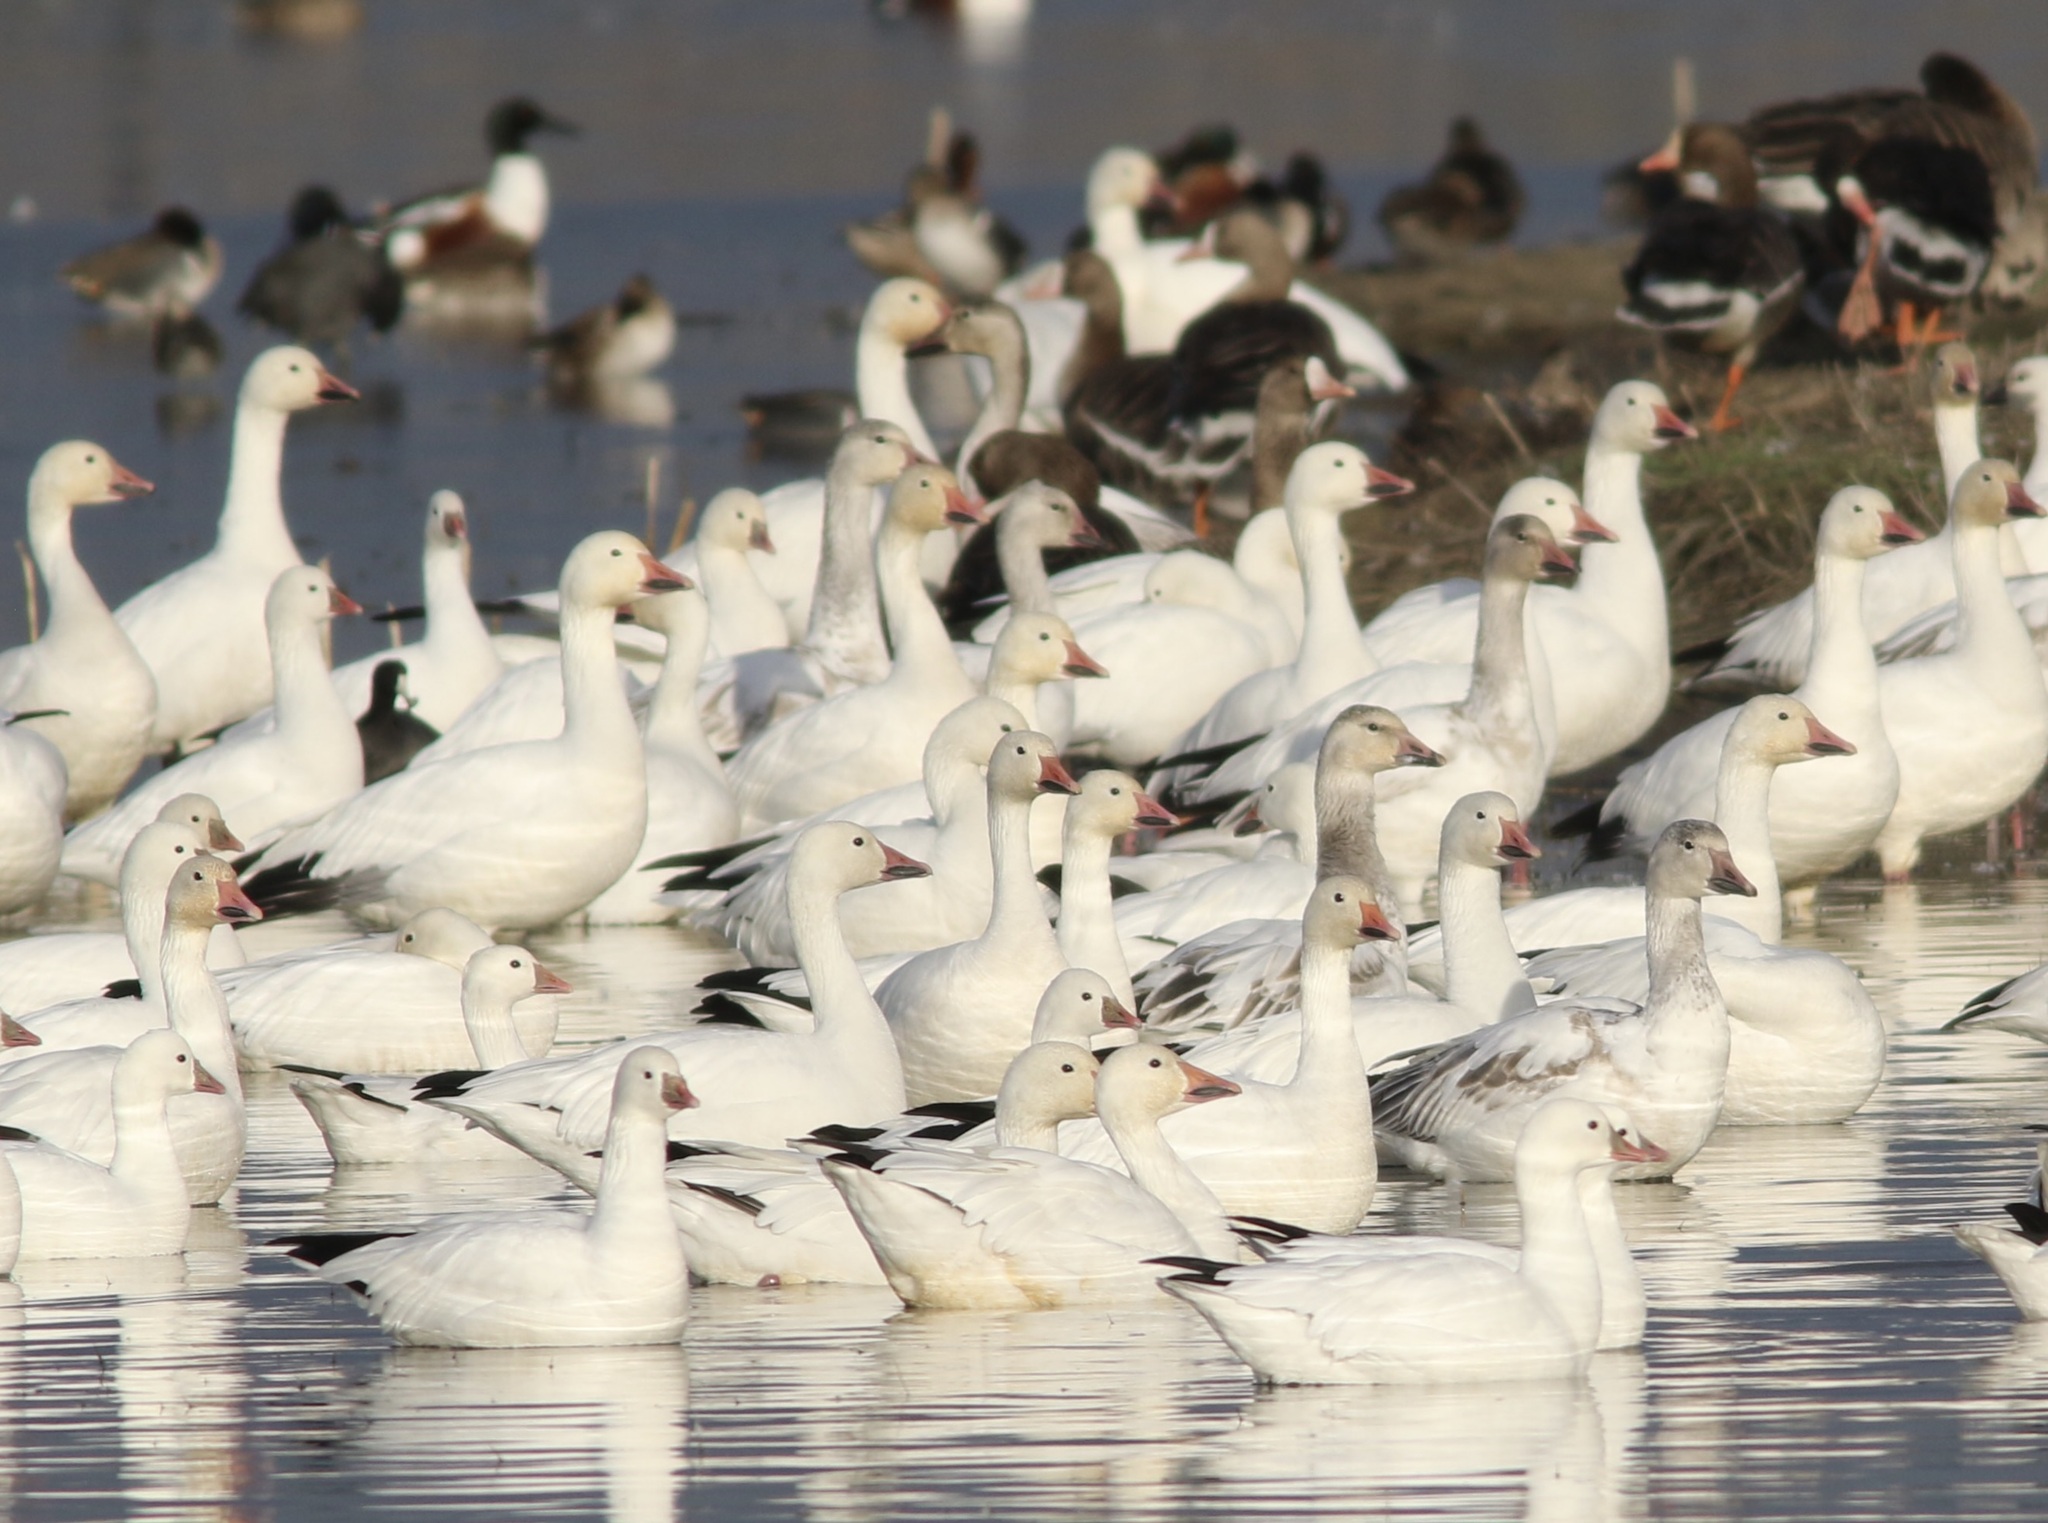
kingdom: Animalia
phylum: Chordata
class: Aves
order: Anseriformes
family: Anatidae
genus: Anser
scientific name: Anser caerulescens
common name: Snow goose
